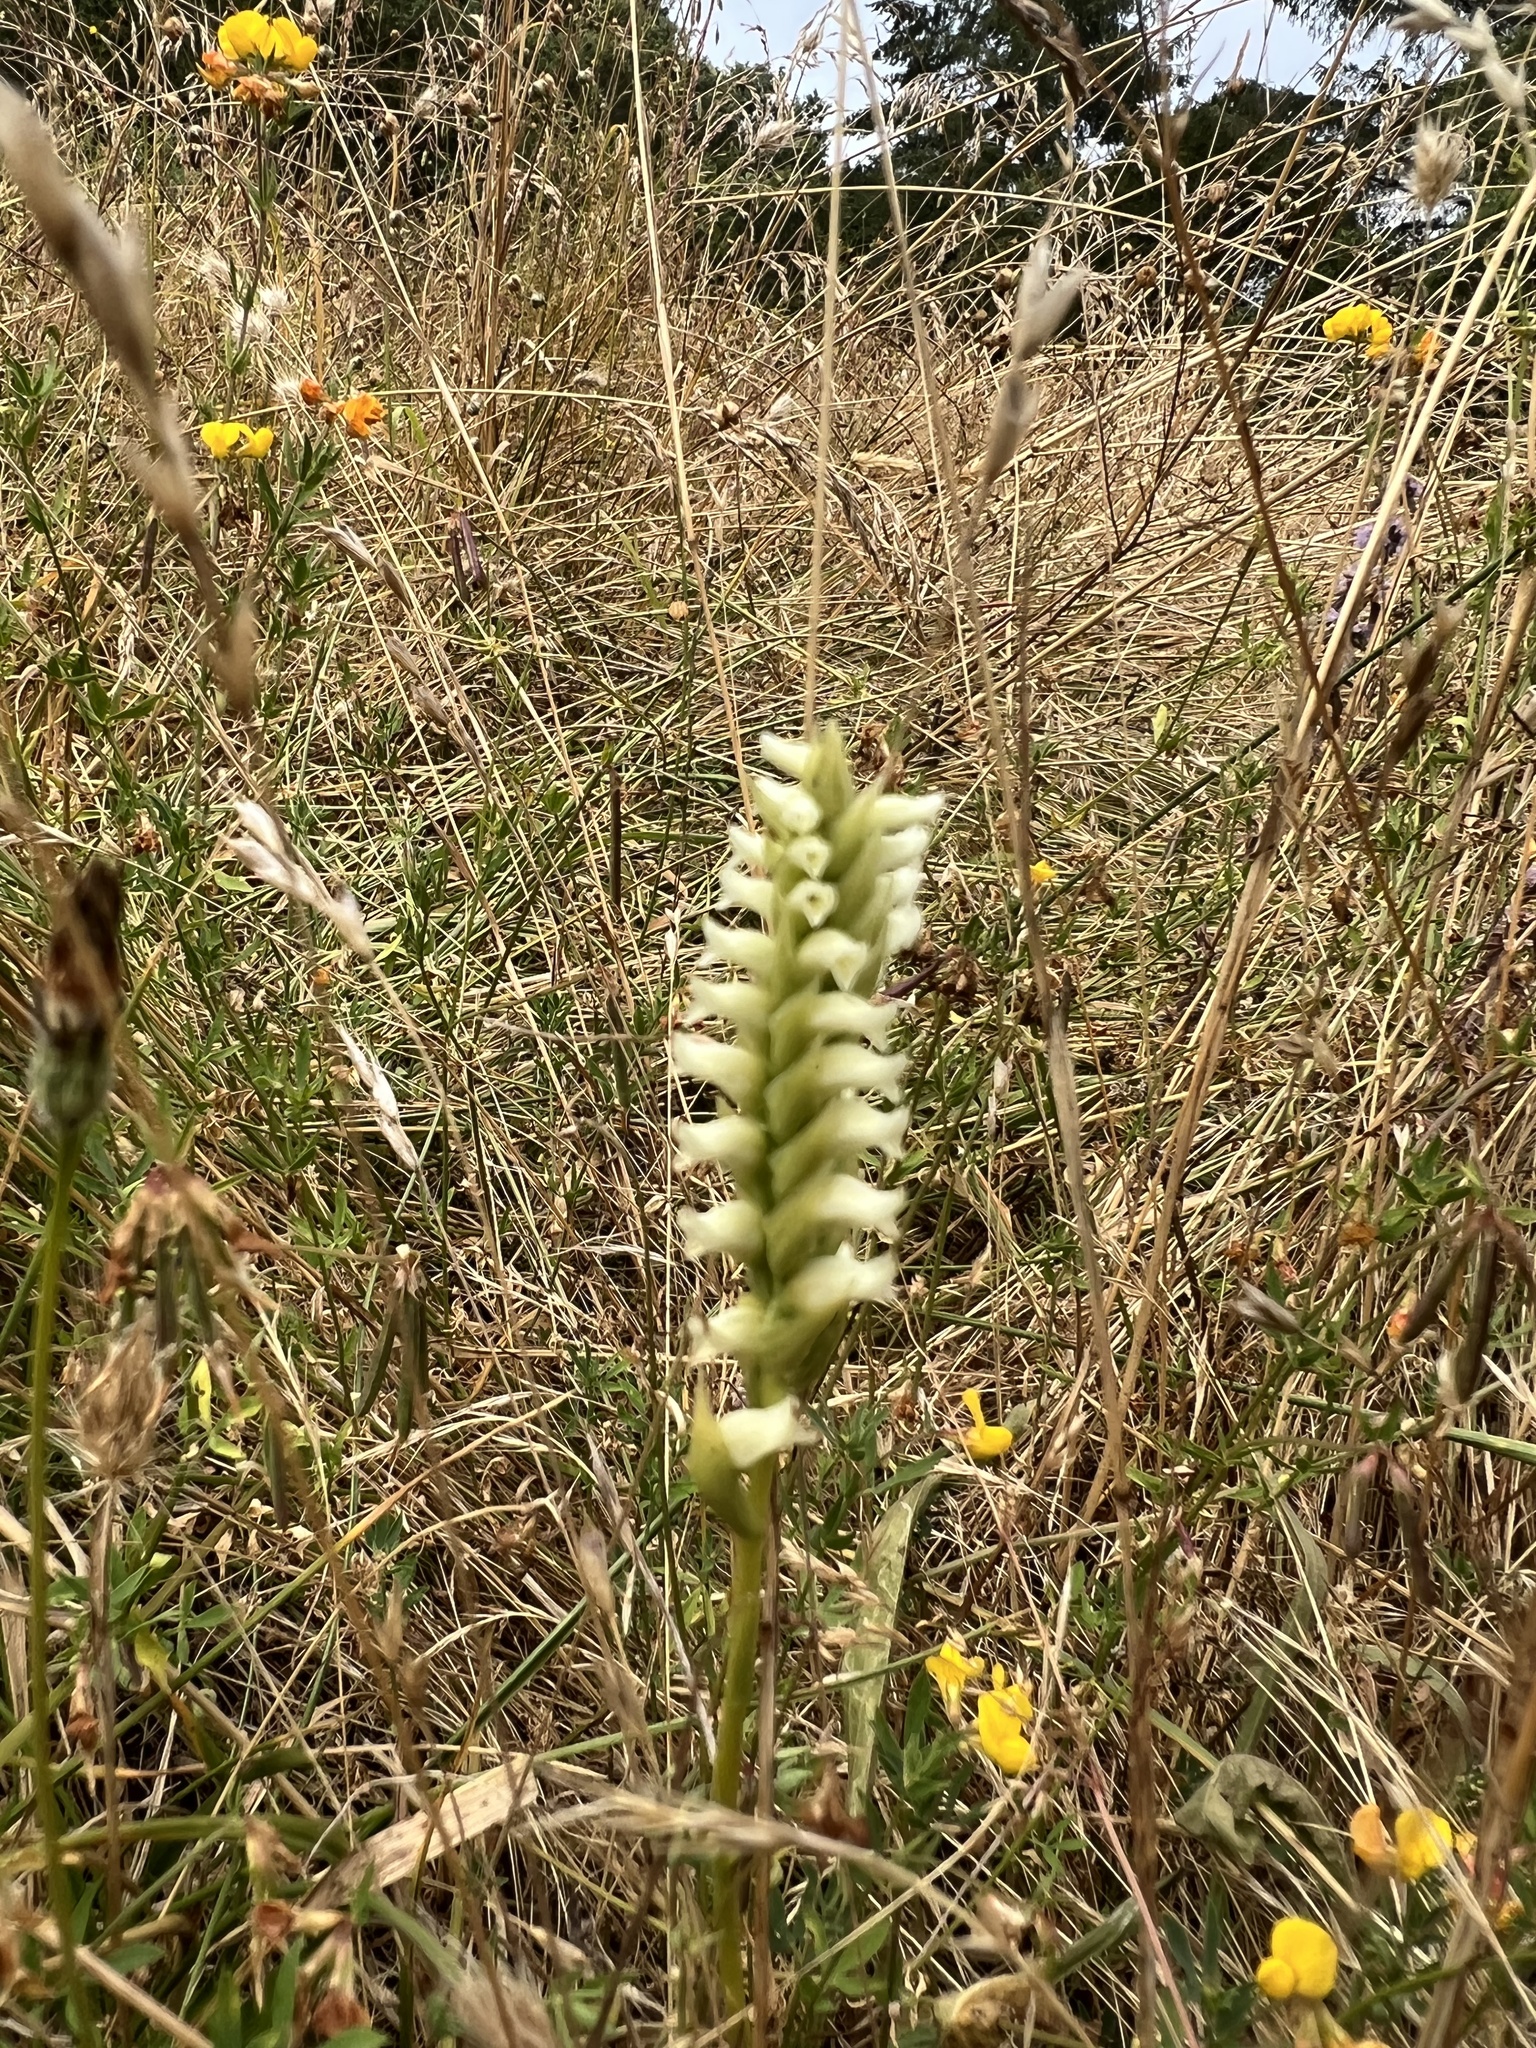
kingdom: Plantae
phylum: Tracheophyta
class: Liliopsida
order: Asparagales
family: Orchidaceae
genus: Spiranthes
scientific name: Spiranthes romanzoffiana
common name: Irish lady's-tresses
